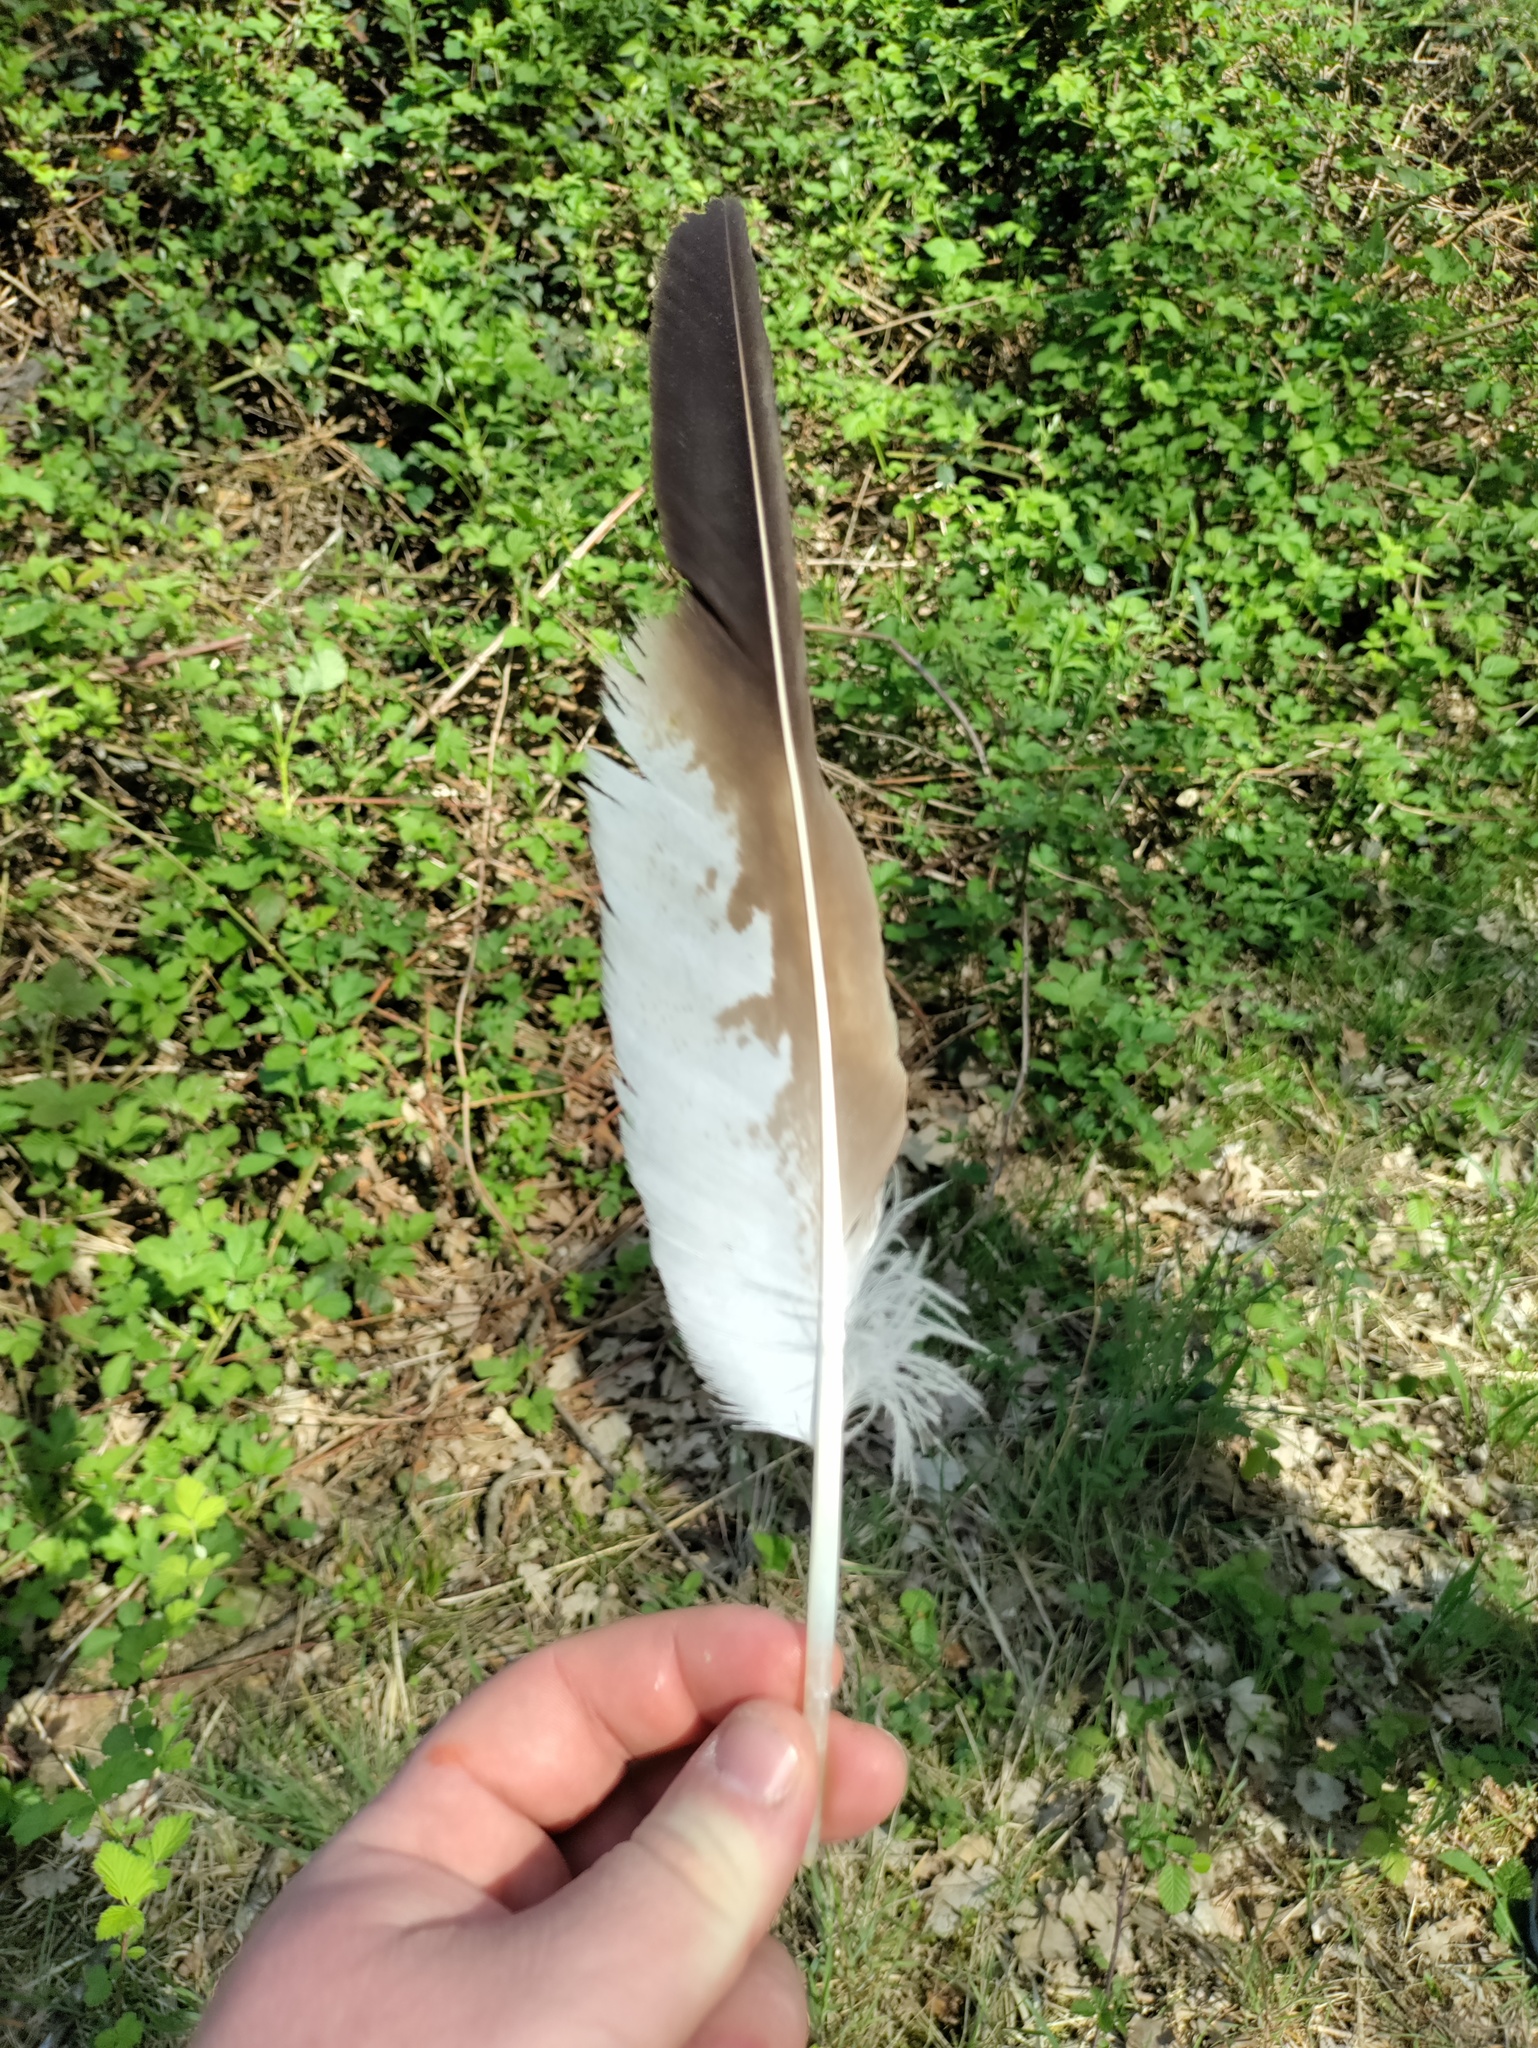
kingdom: Animalia
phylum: Chordata
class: Aves
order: Accipitriformes
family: Accipitridae
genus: Buteo
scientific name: Buteo buteo
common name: Common buzzard
